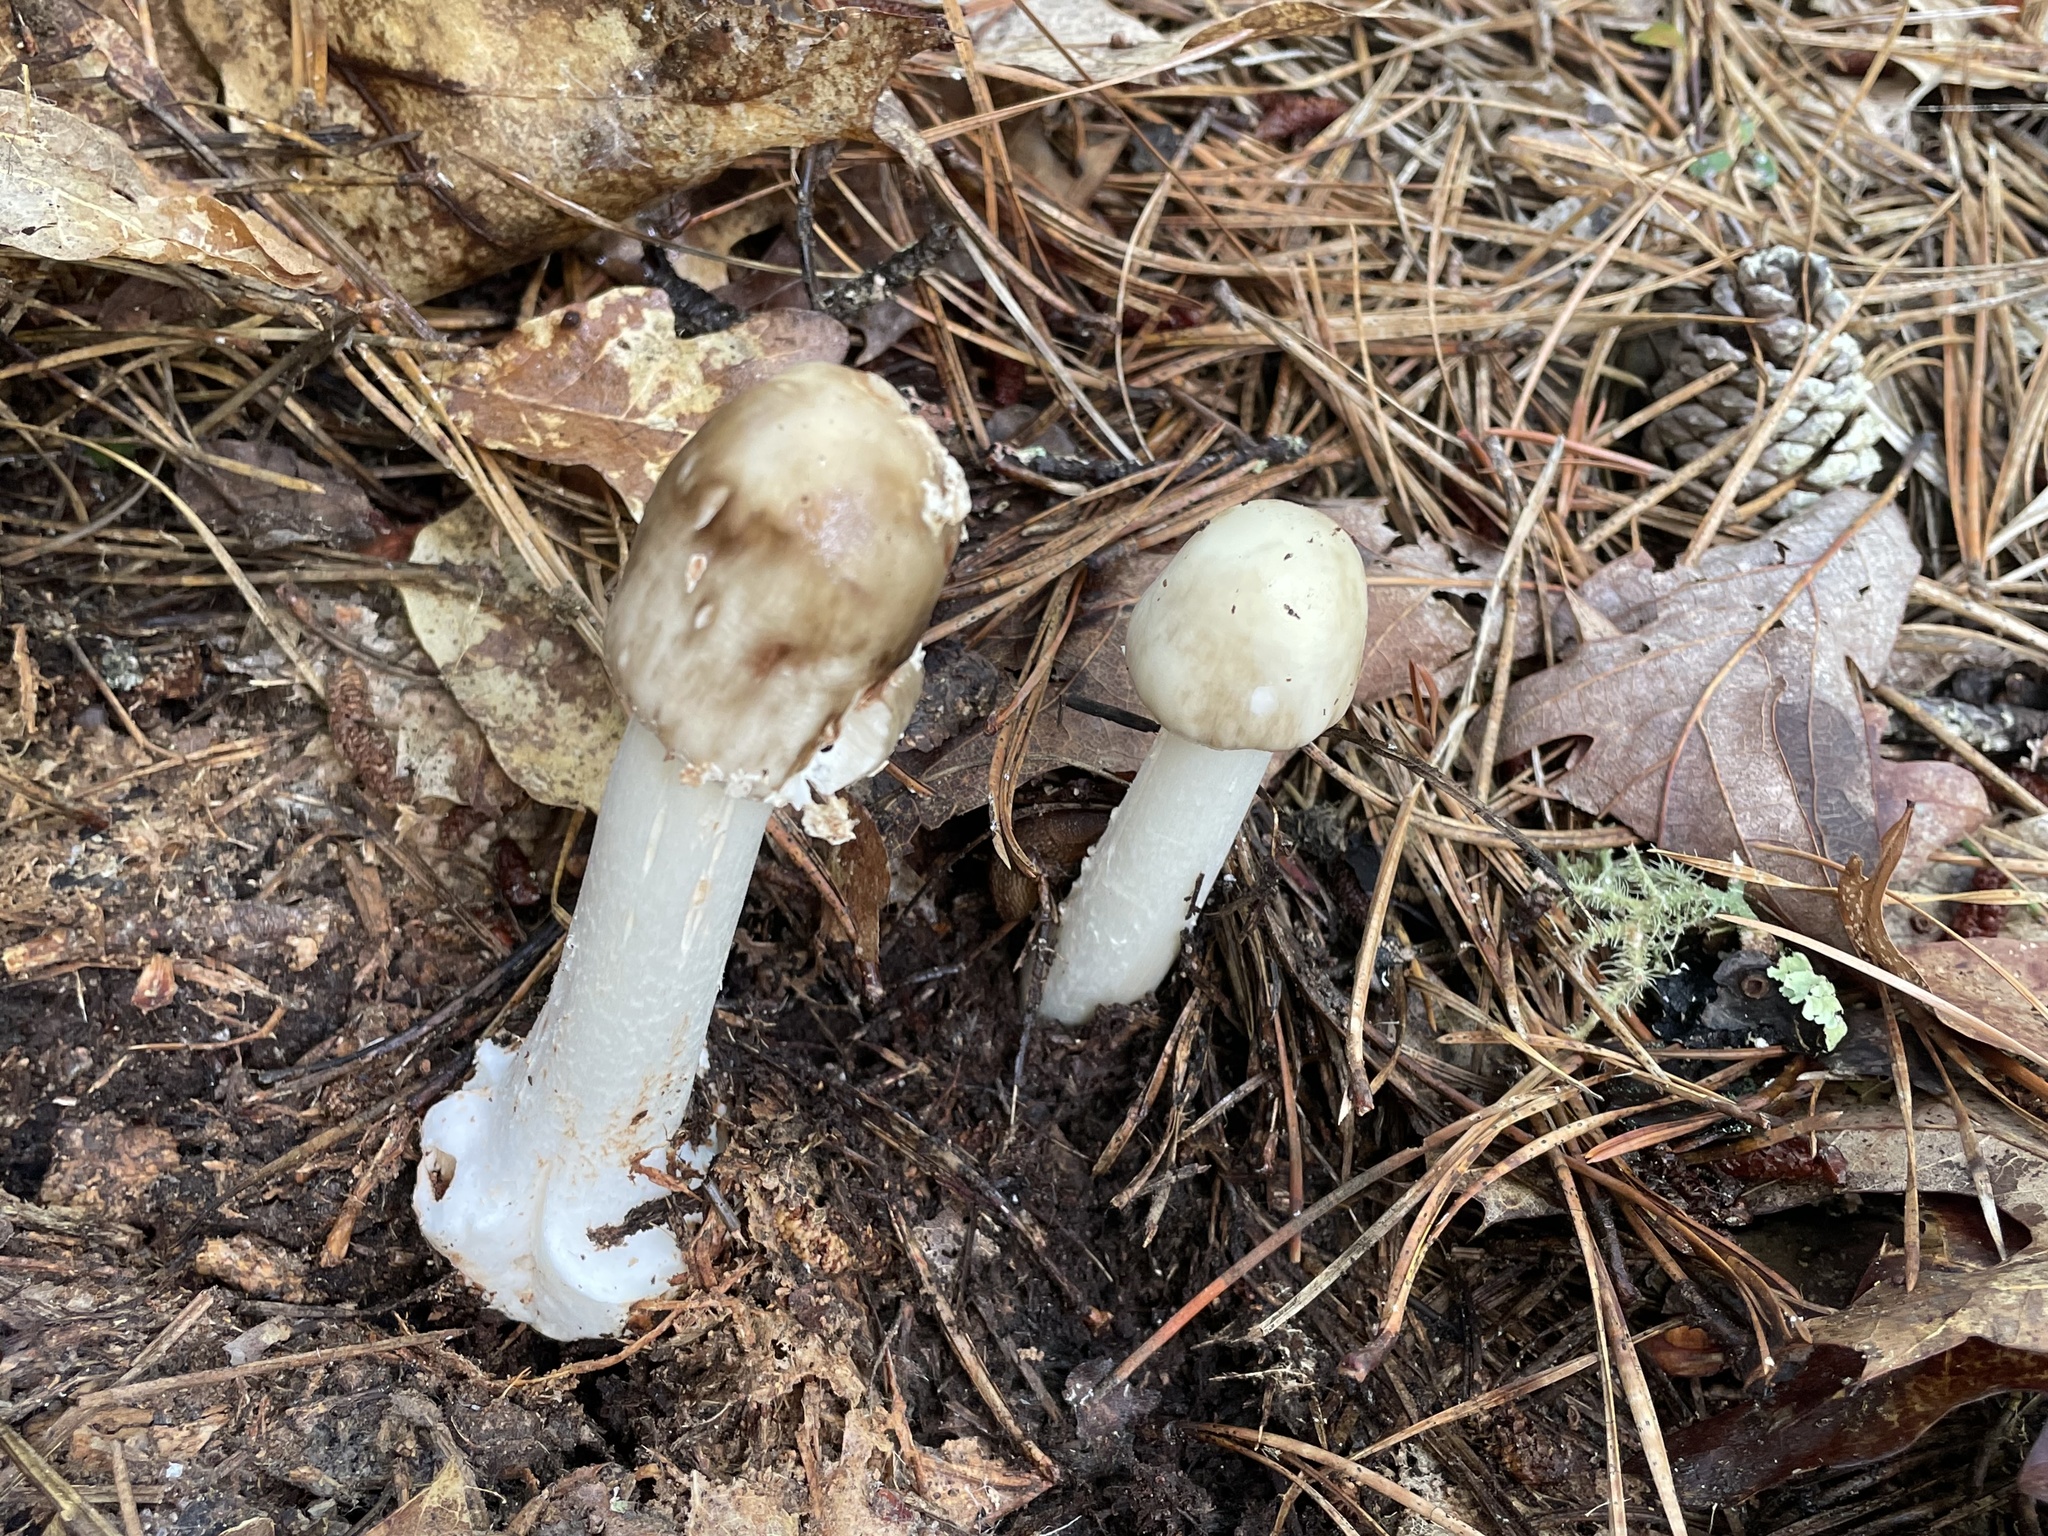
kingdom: Fungi
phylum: Basidiomycota
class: Agaricomycetes
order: Agaricales
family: Amanitaceae
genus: Amanita
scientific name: Amanita brunnescens
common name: Brown american star-footed amanita
